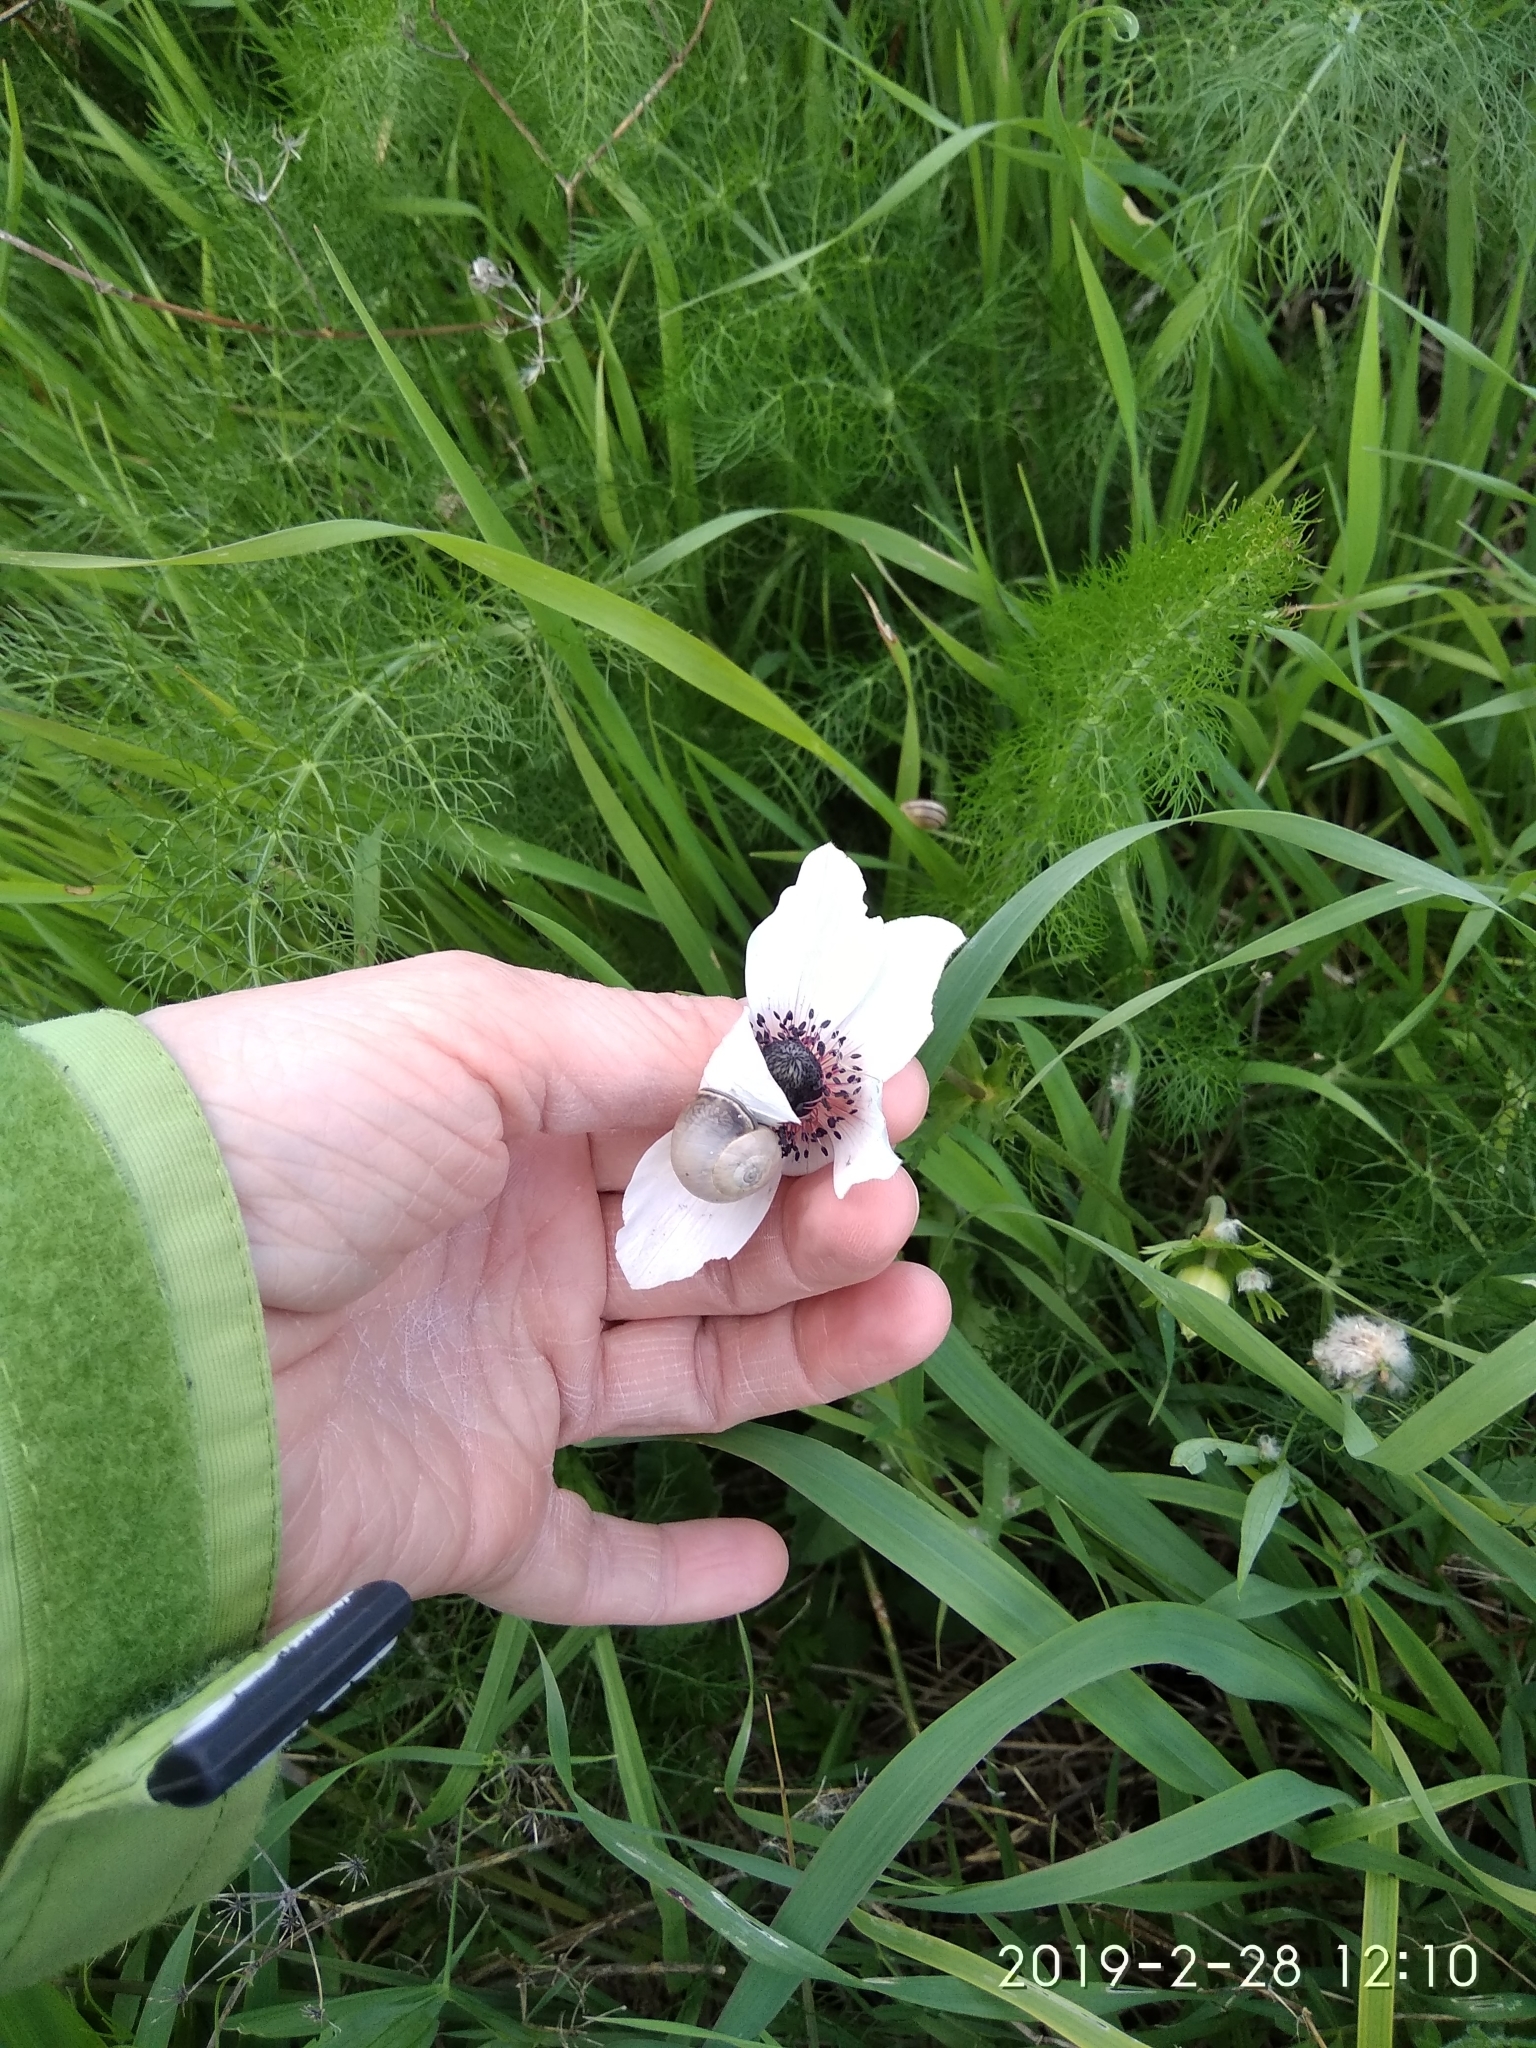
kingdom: Plantae
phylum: Tracheophyta
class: Magnoliopsida
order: Ranunculales
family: Ranunculaceae
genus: Anemone
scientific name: Anemone coronaria
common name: Poppy anemone
